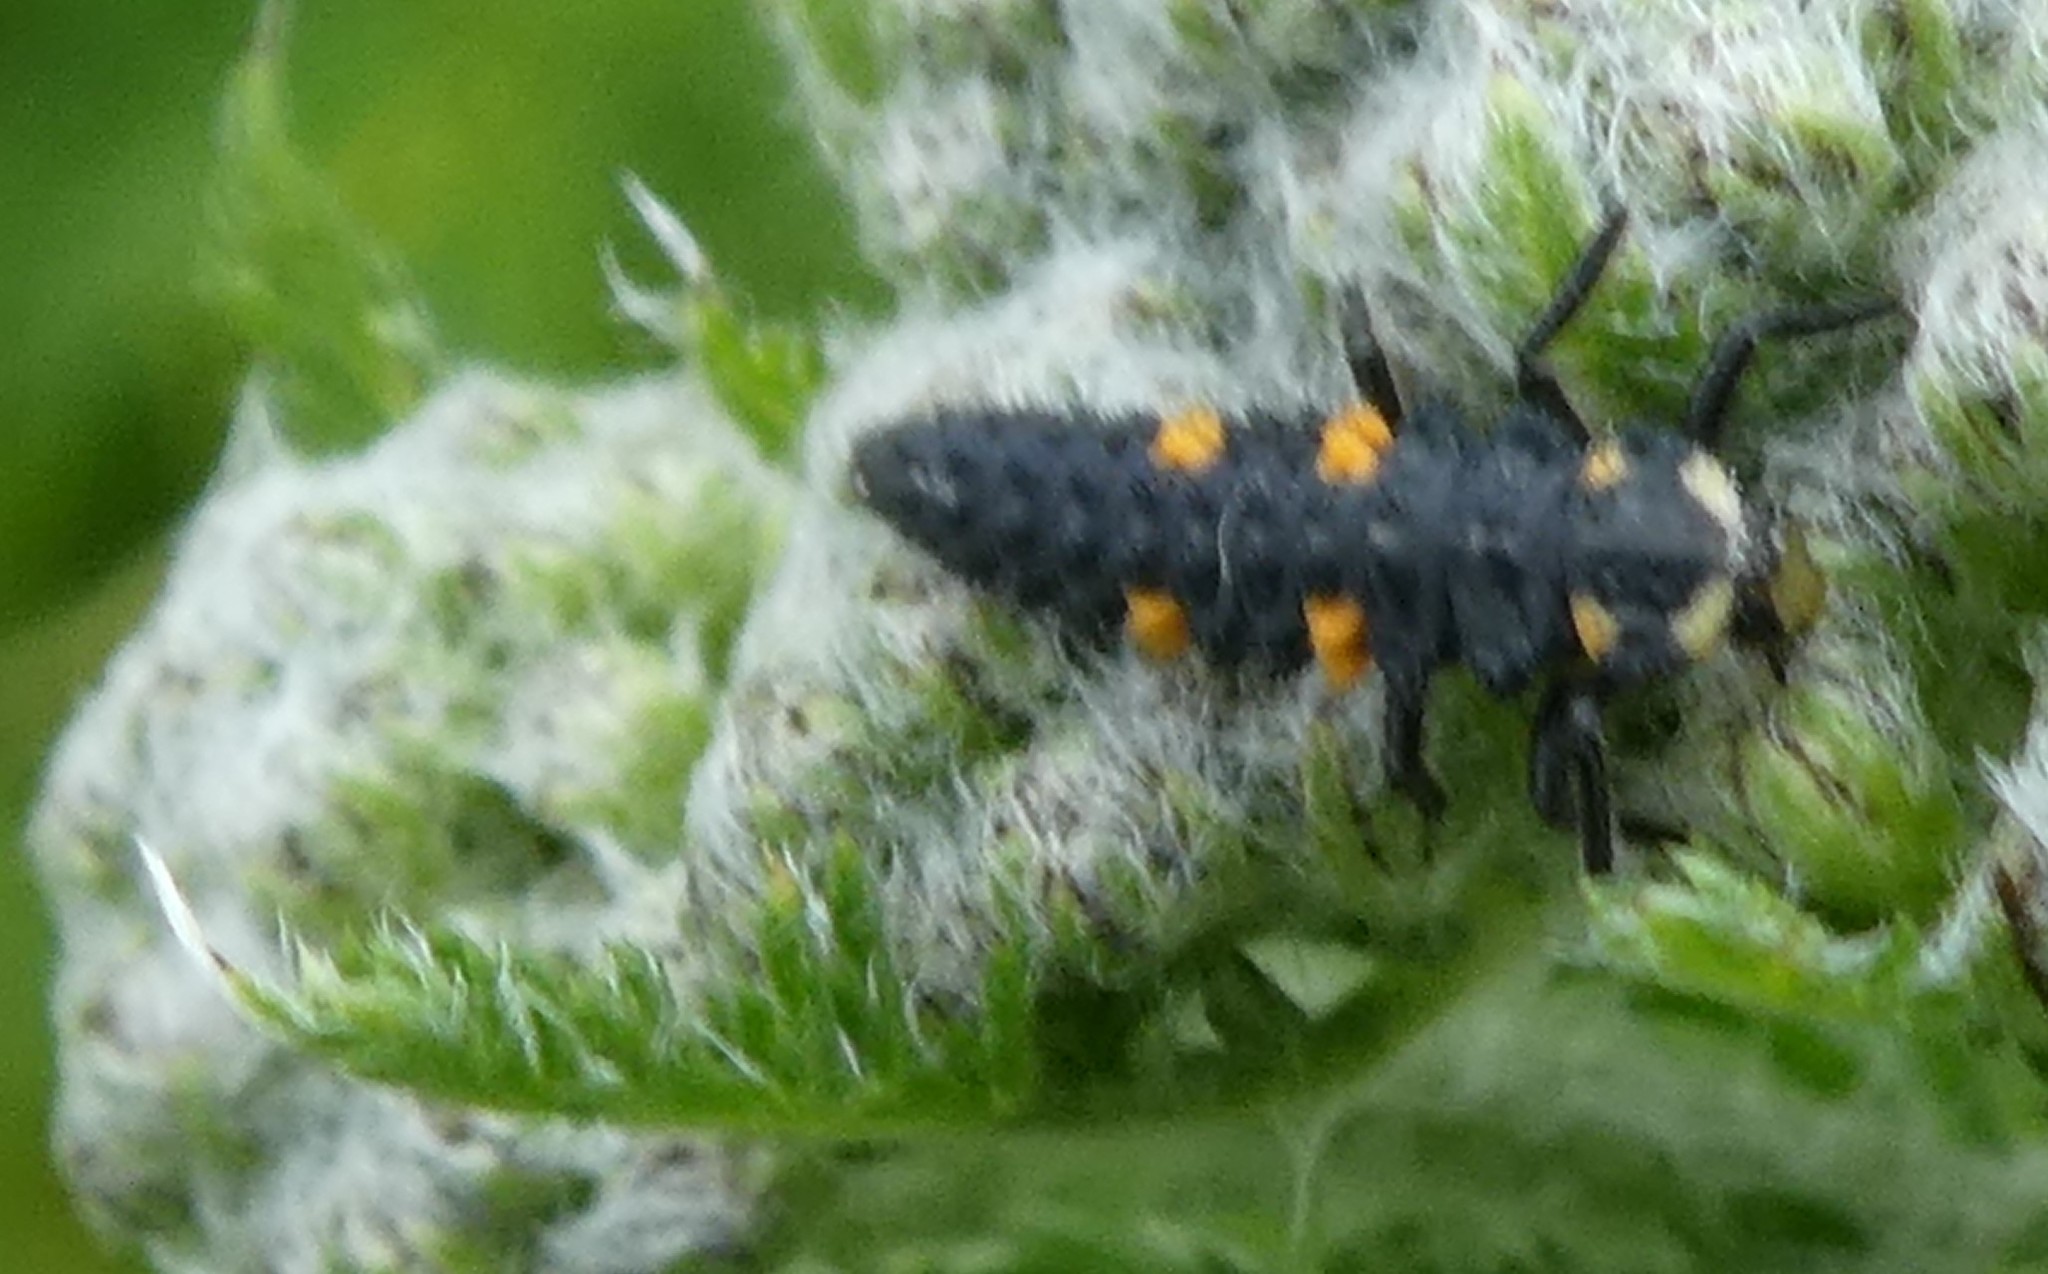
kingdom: Animalia
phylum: Arthropoda
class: Insecta
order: Coleoptera
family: Coccinellidae
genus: Coccinella
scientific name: Coccinella septempunctata
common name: Sevenspotted lady beetle
